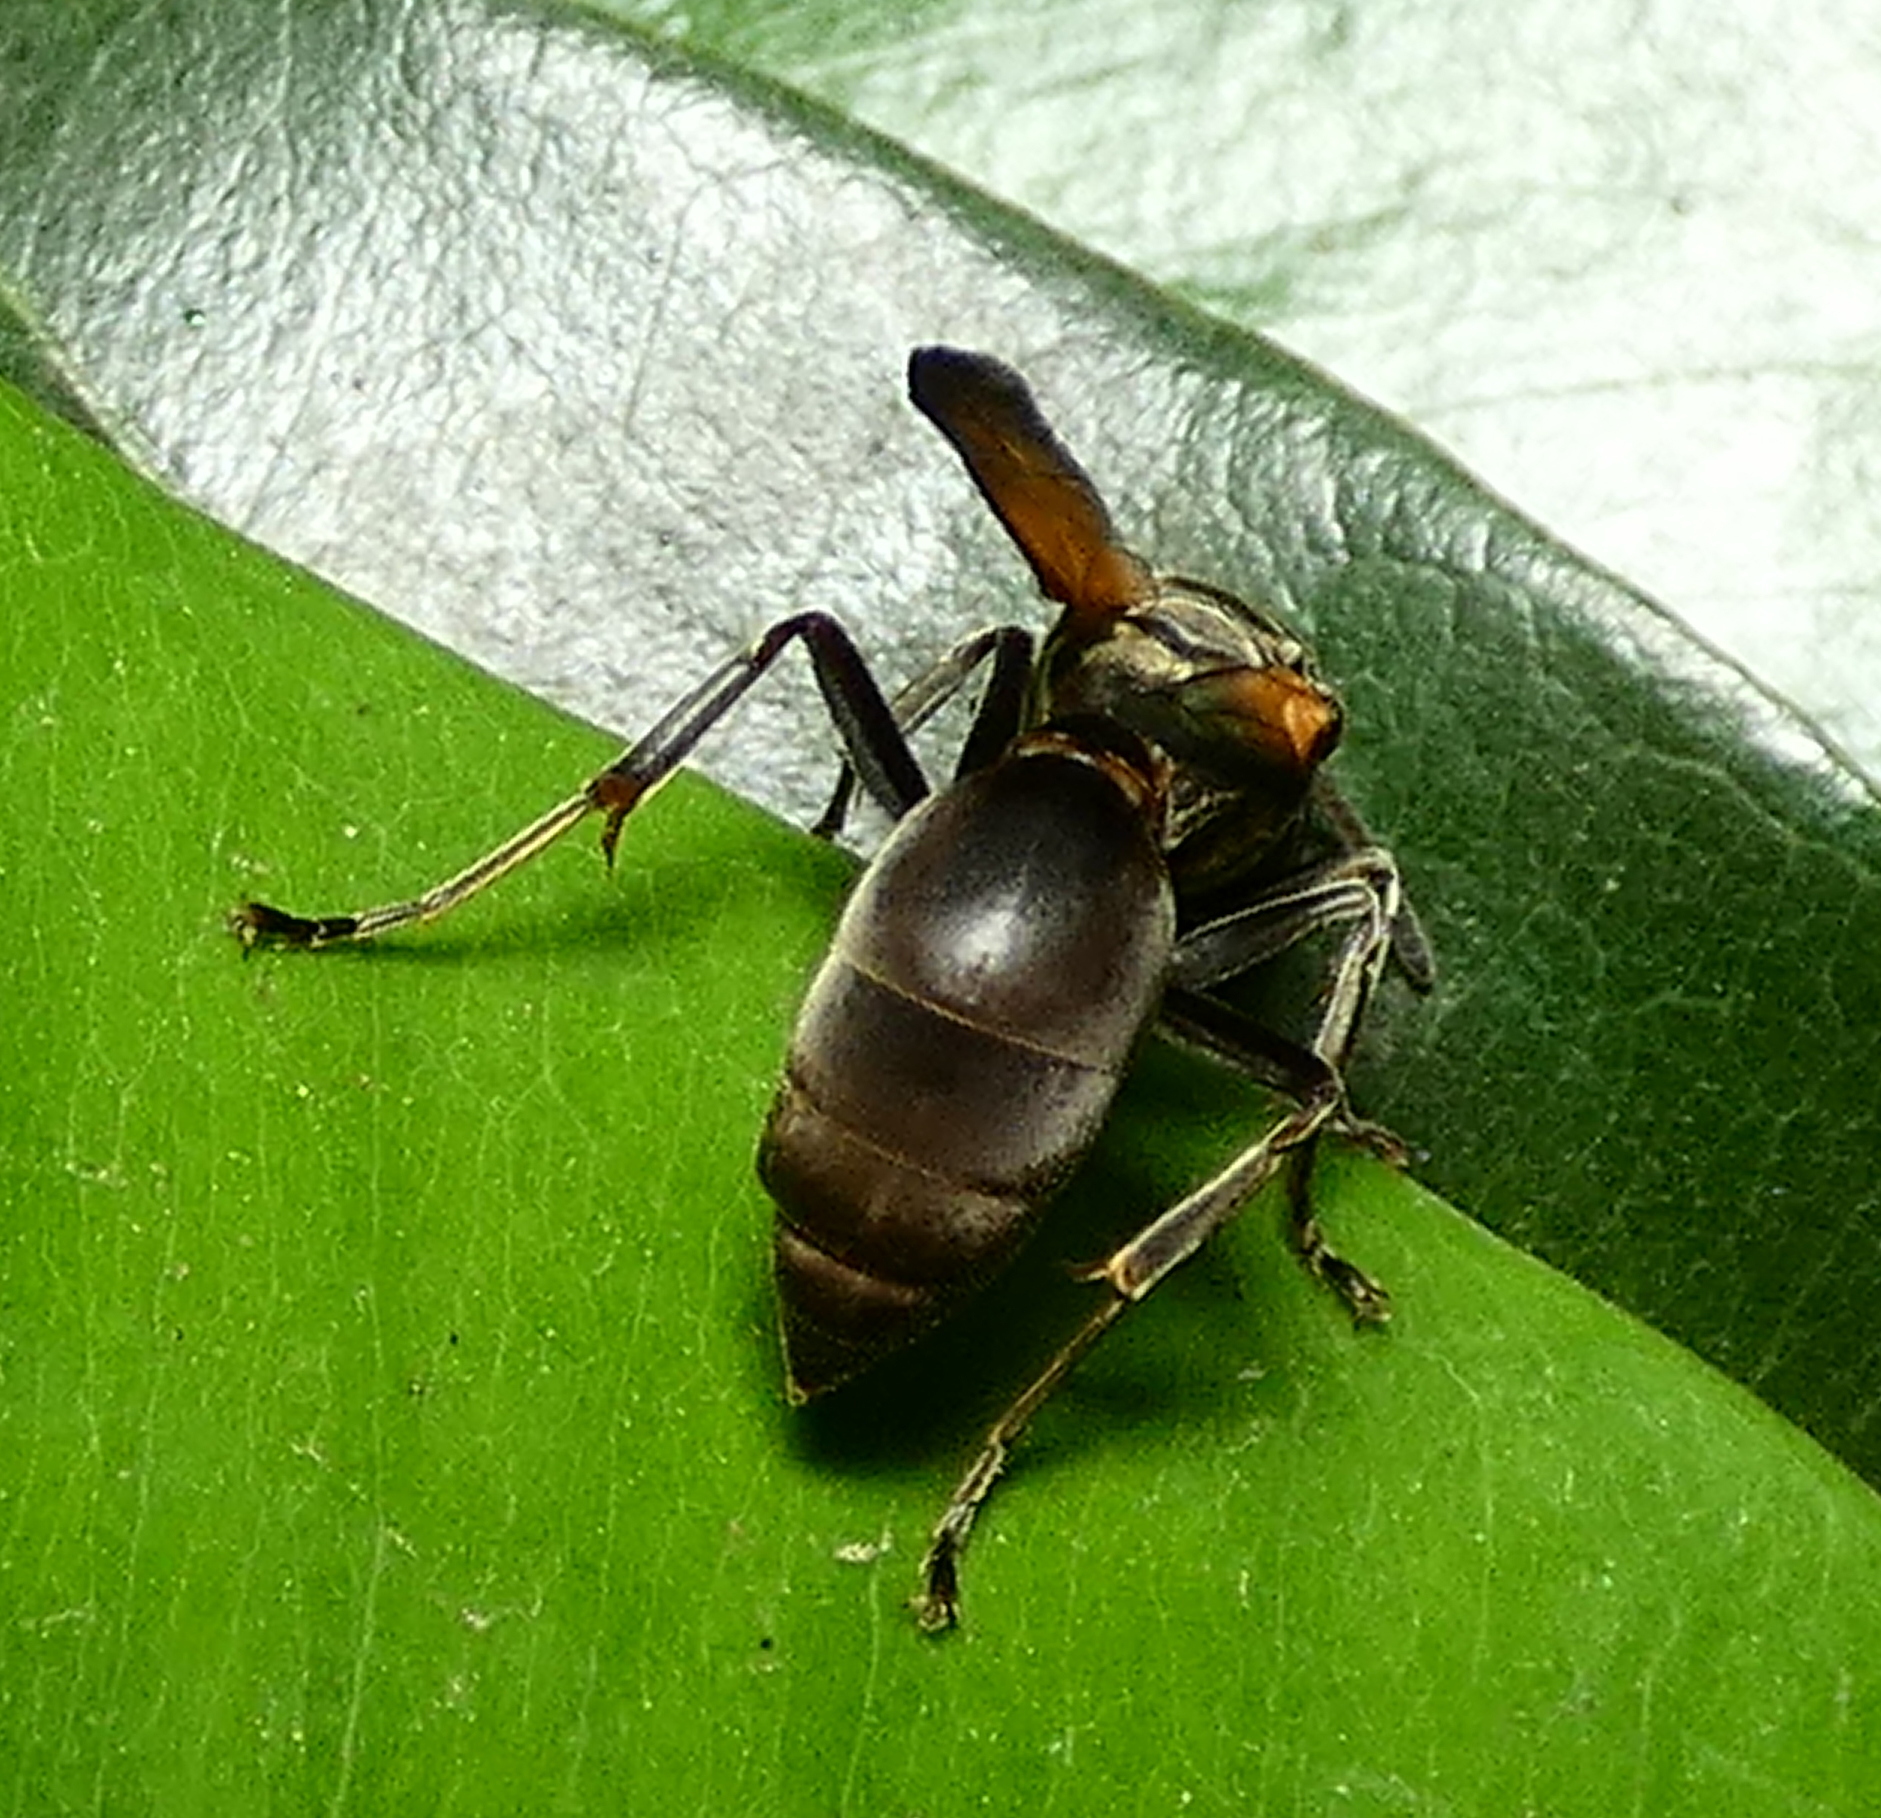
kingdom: Animalia
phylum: Arthropoda
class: Insecta
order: Hymenoptera
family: Eumenidae
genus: Polybia
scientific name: Polybia rejecta
